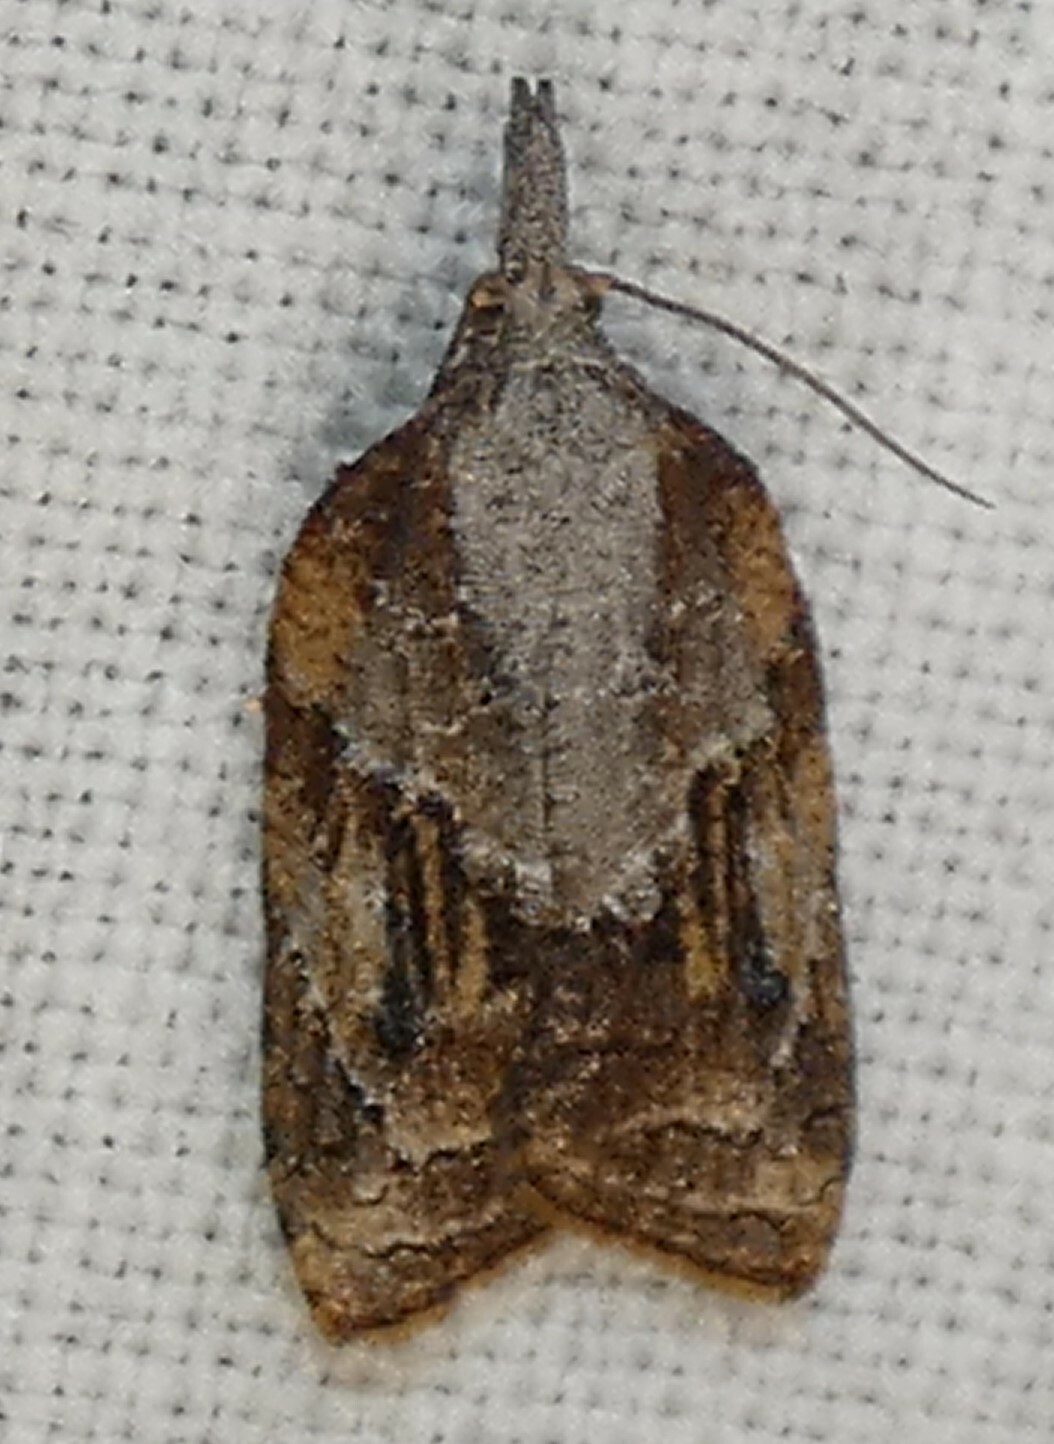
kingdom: Animalia
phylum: Arthropoda
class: Insecta
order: Lepidoptera
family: Tortricidae
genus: Platynota
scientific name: Platynota idaeusalis
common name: Tufted apple bud moth
